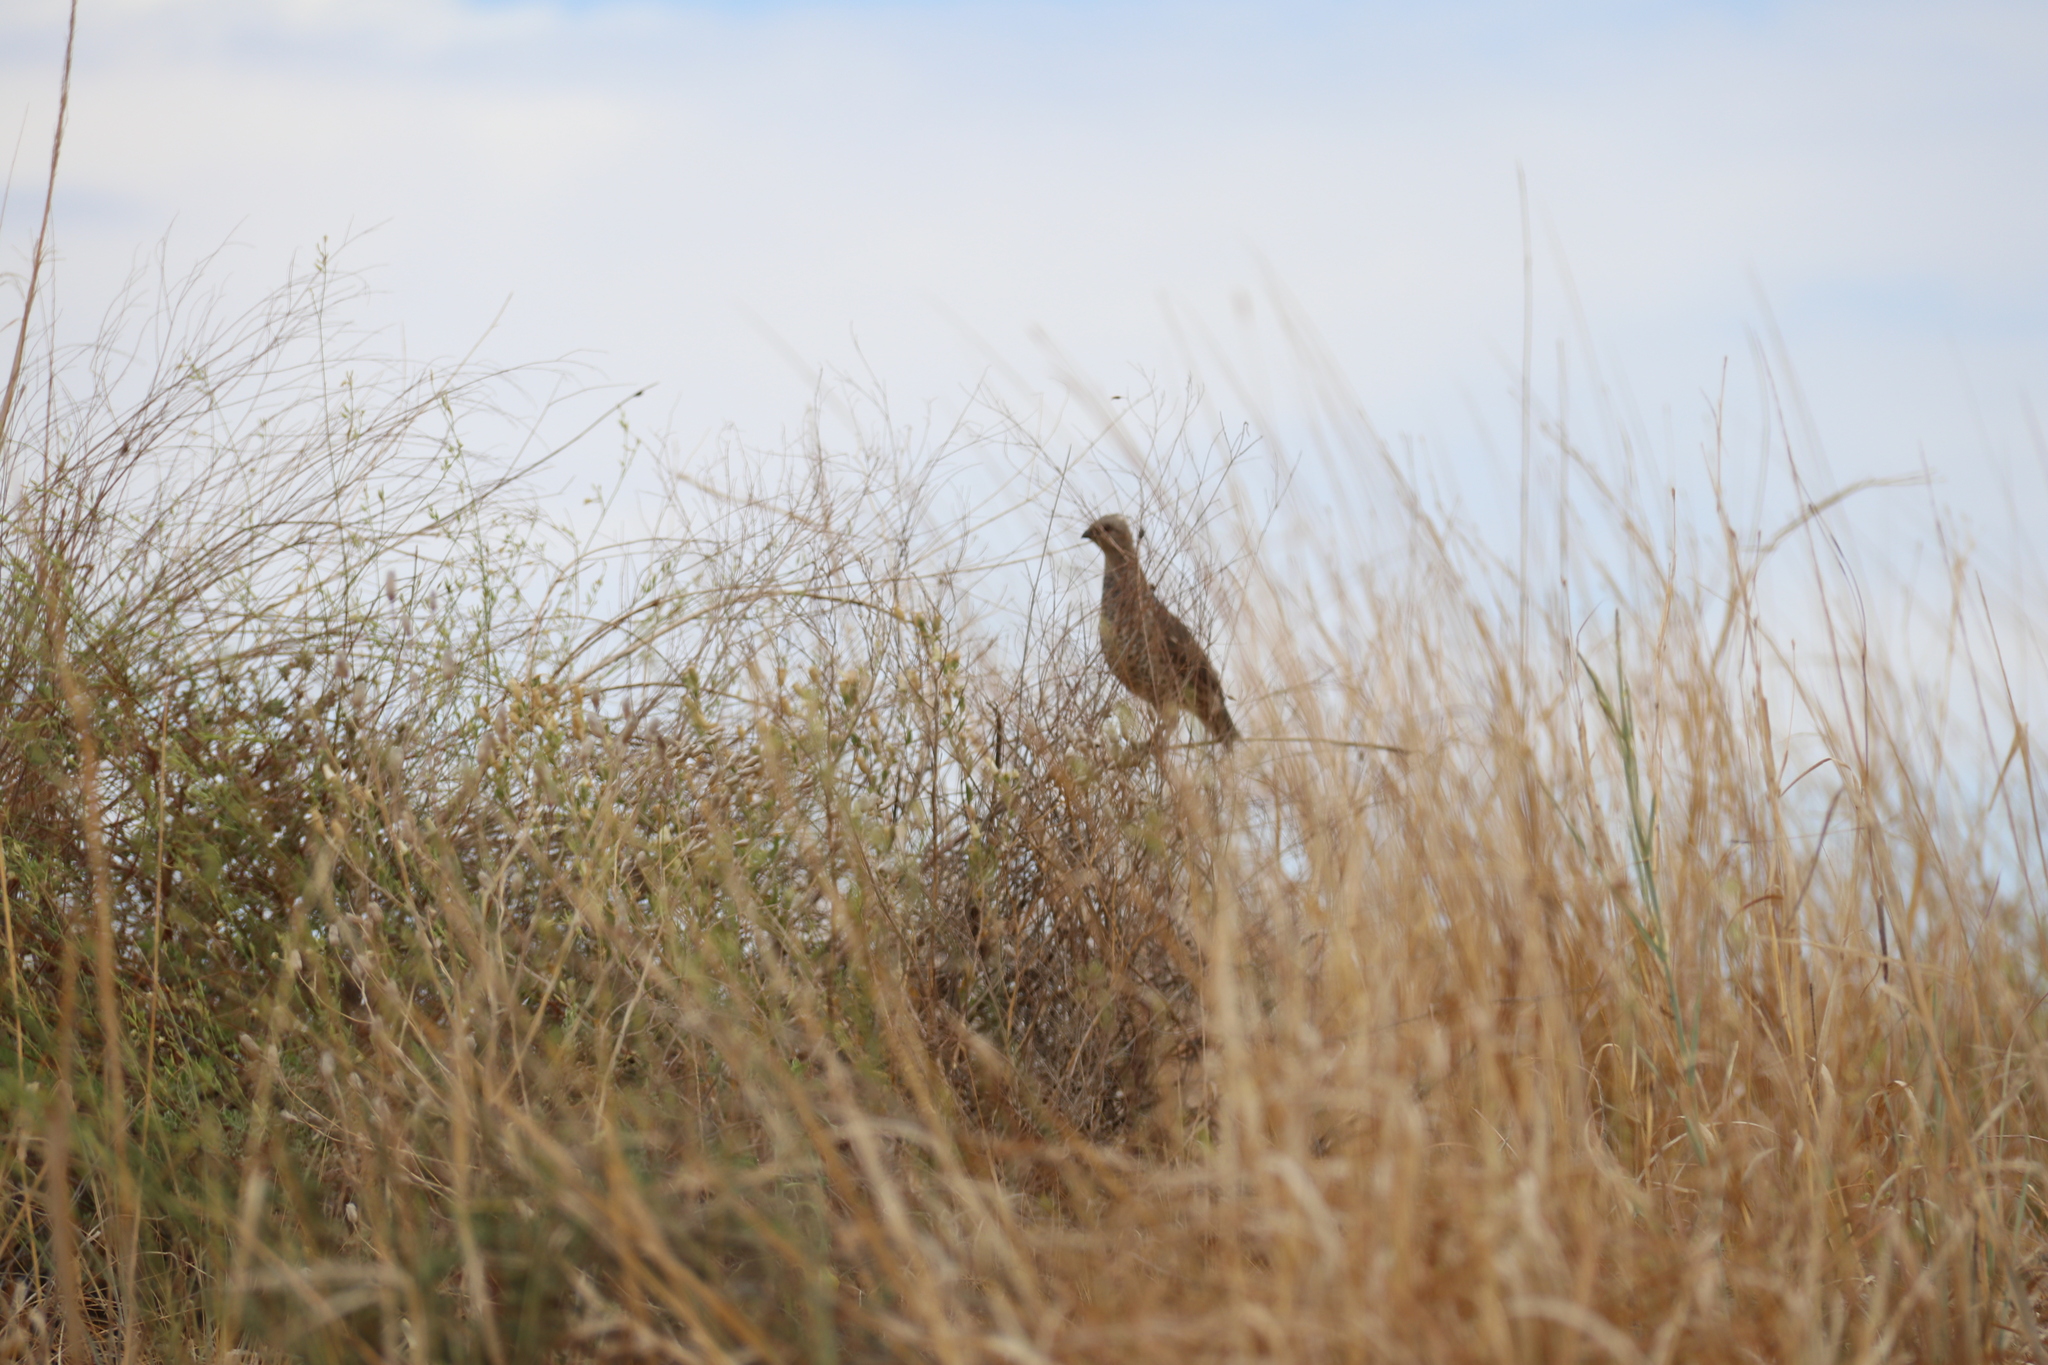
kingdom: Animalia
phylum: Chordata
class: Aves
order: Galliformes
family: Odontophoridae
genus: Callipepla
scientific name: Callipepla squamata
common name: Scaled quail
